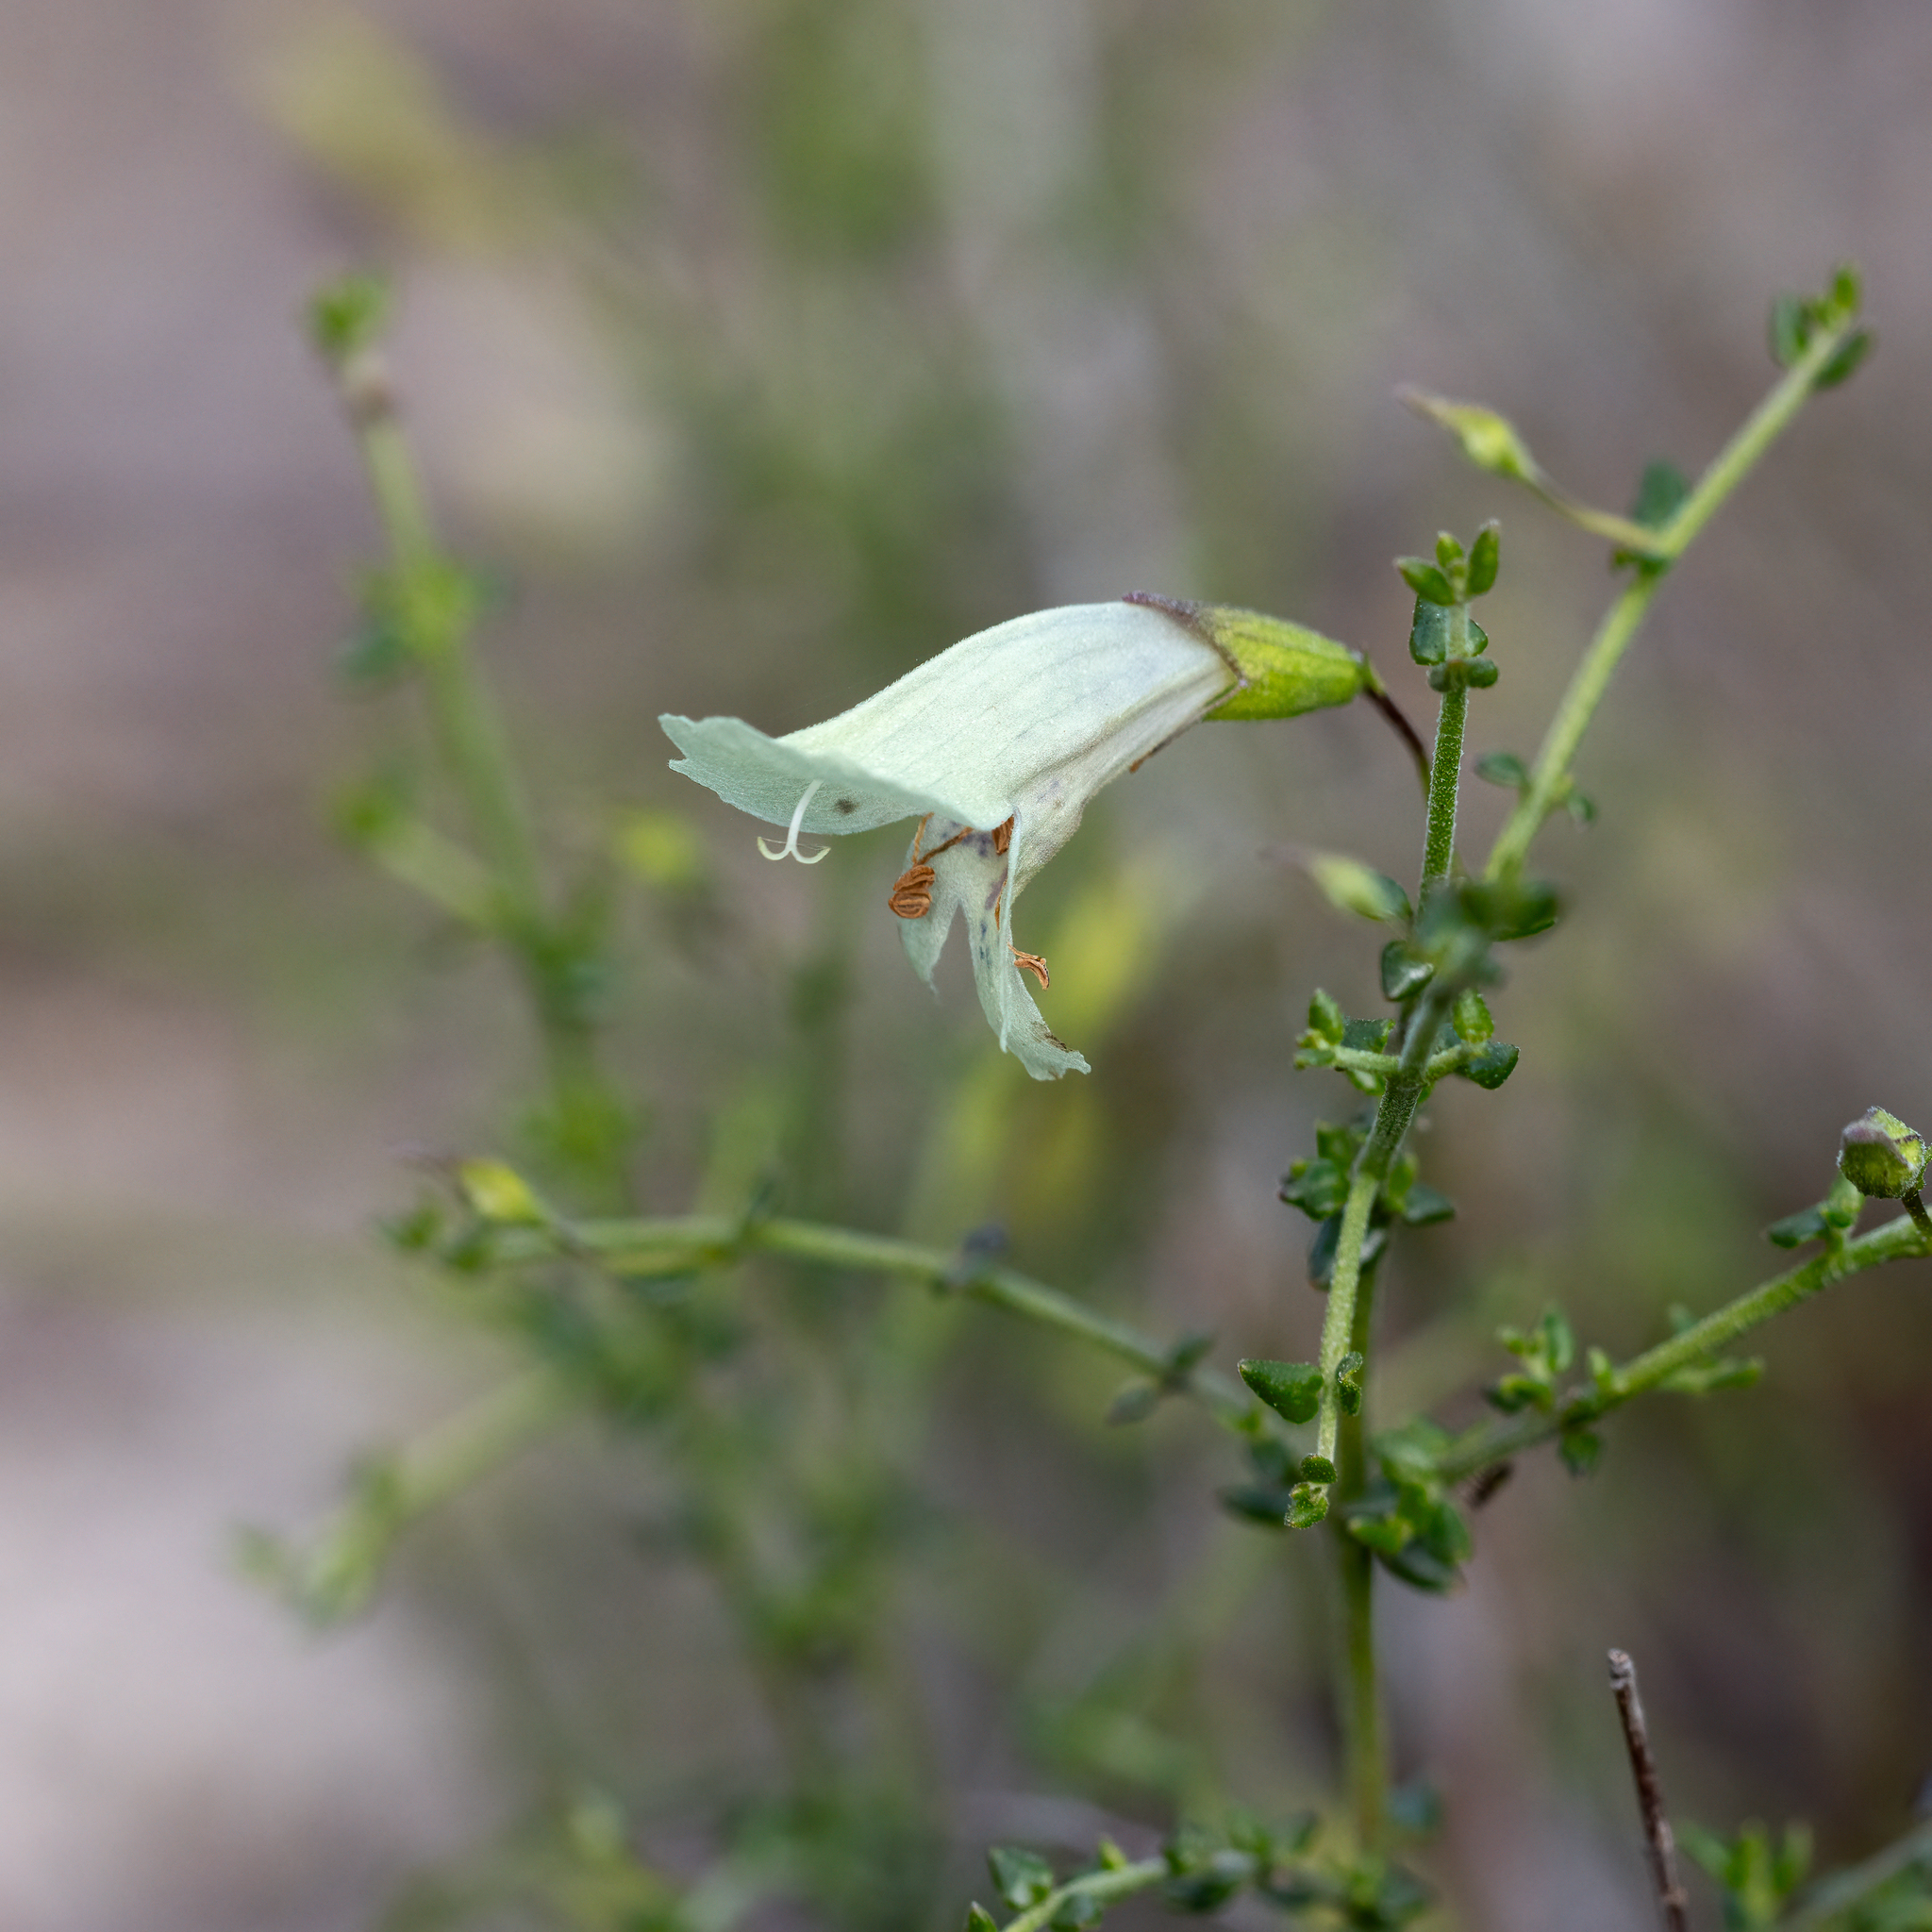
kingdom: Plantae
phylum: Tracheophyta
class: Magnoliopsida
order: Lamiales
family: Lamiaceae
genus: Prostanthera
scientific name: Prostanthera chlorantha
